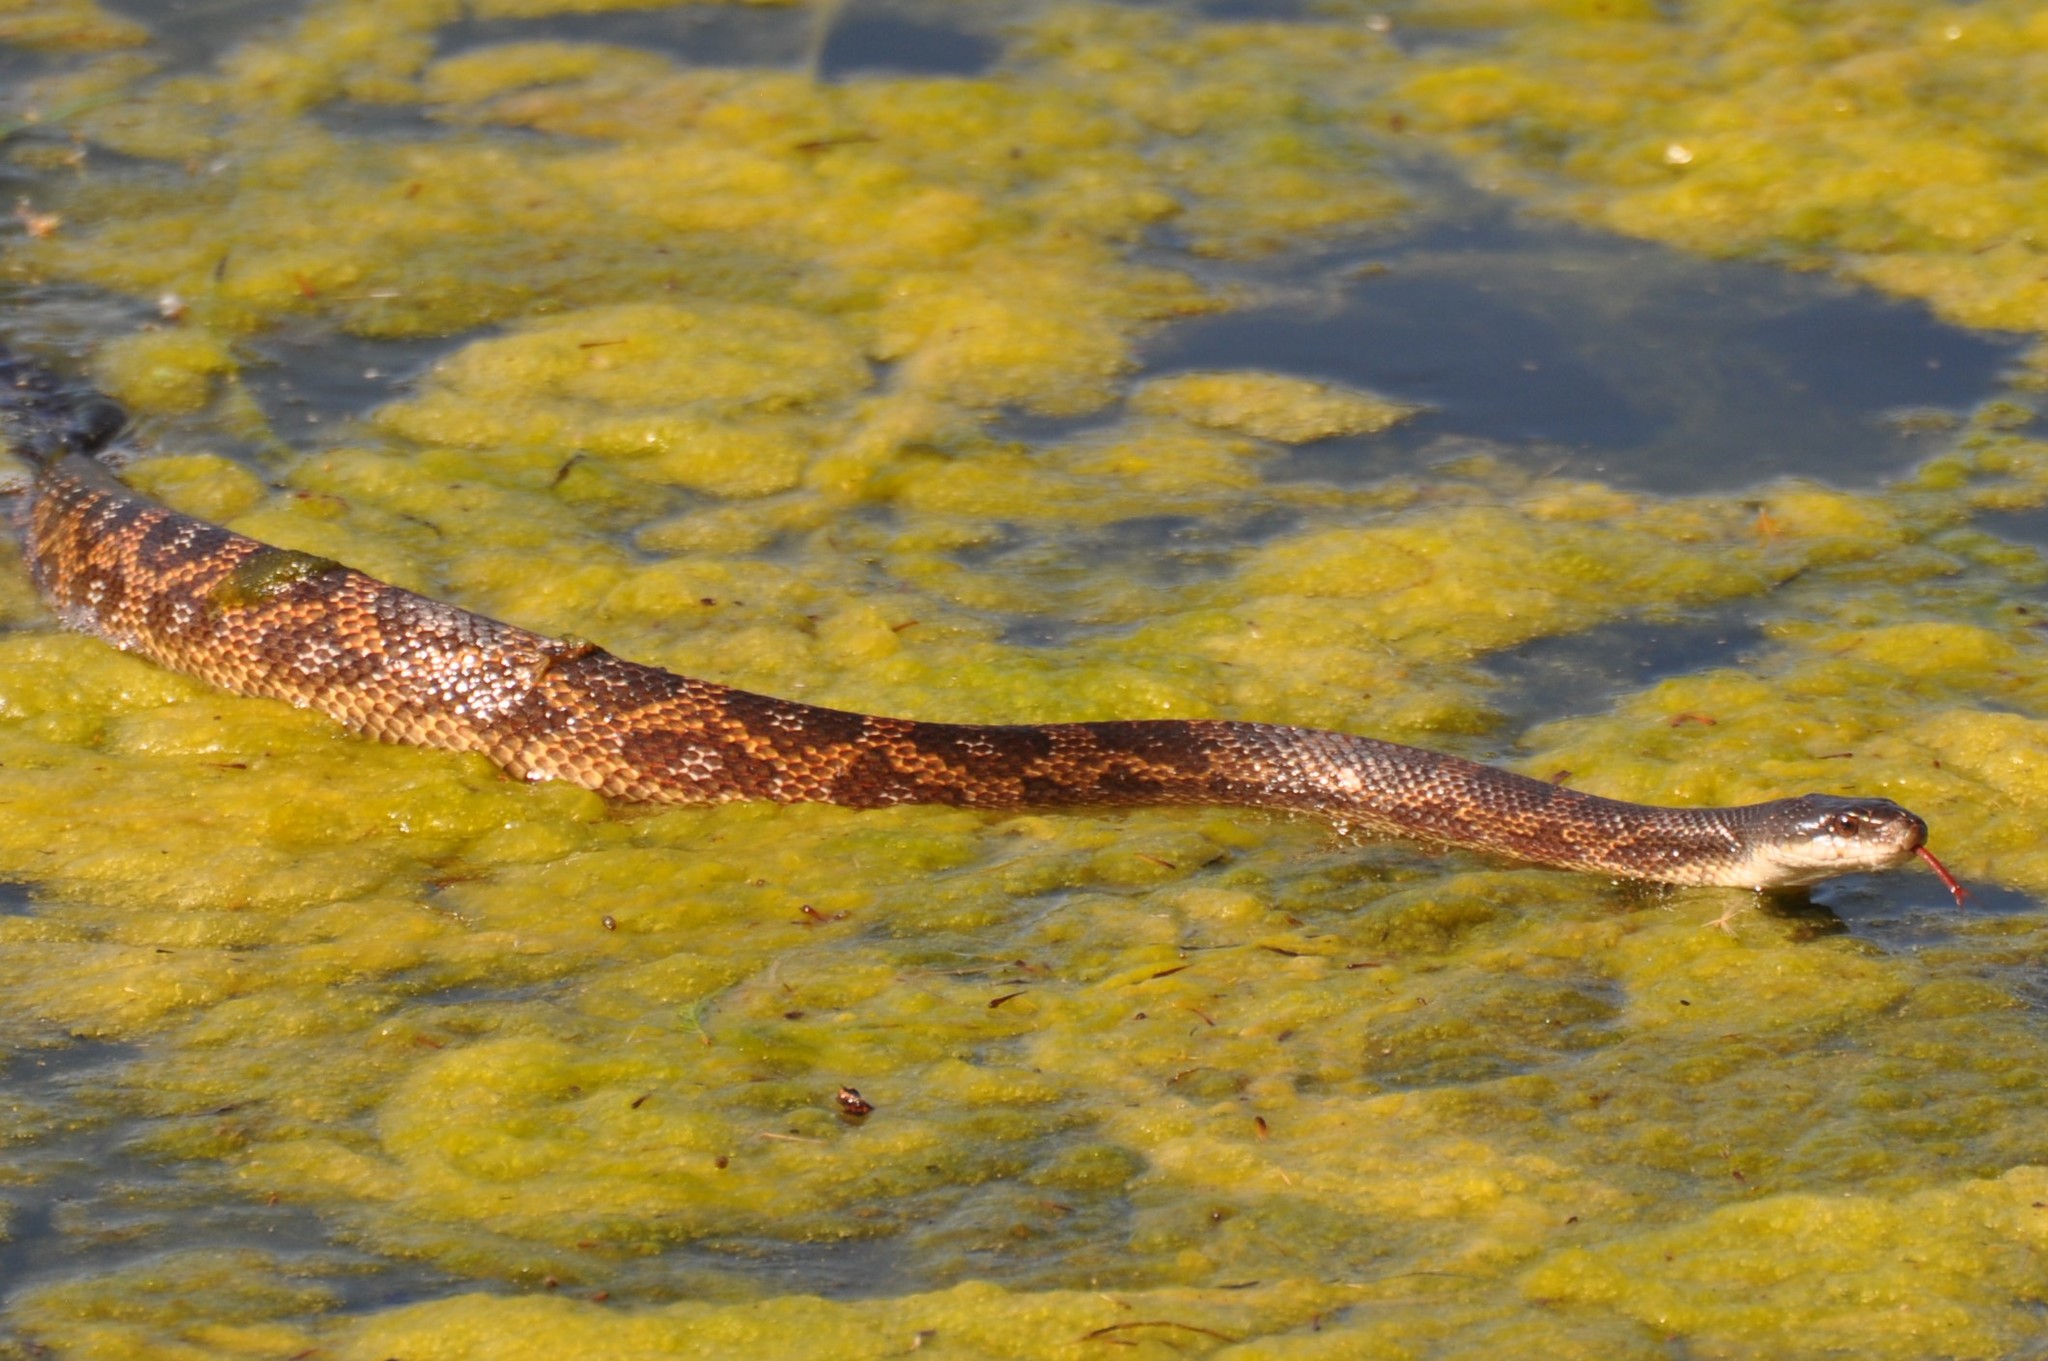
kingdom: Animalia
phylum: Chordata
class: Squamata
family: Colubridae
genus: Pantherophis
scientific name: Pantherophis obsoletus
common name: Black rat snake
